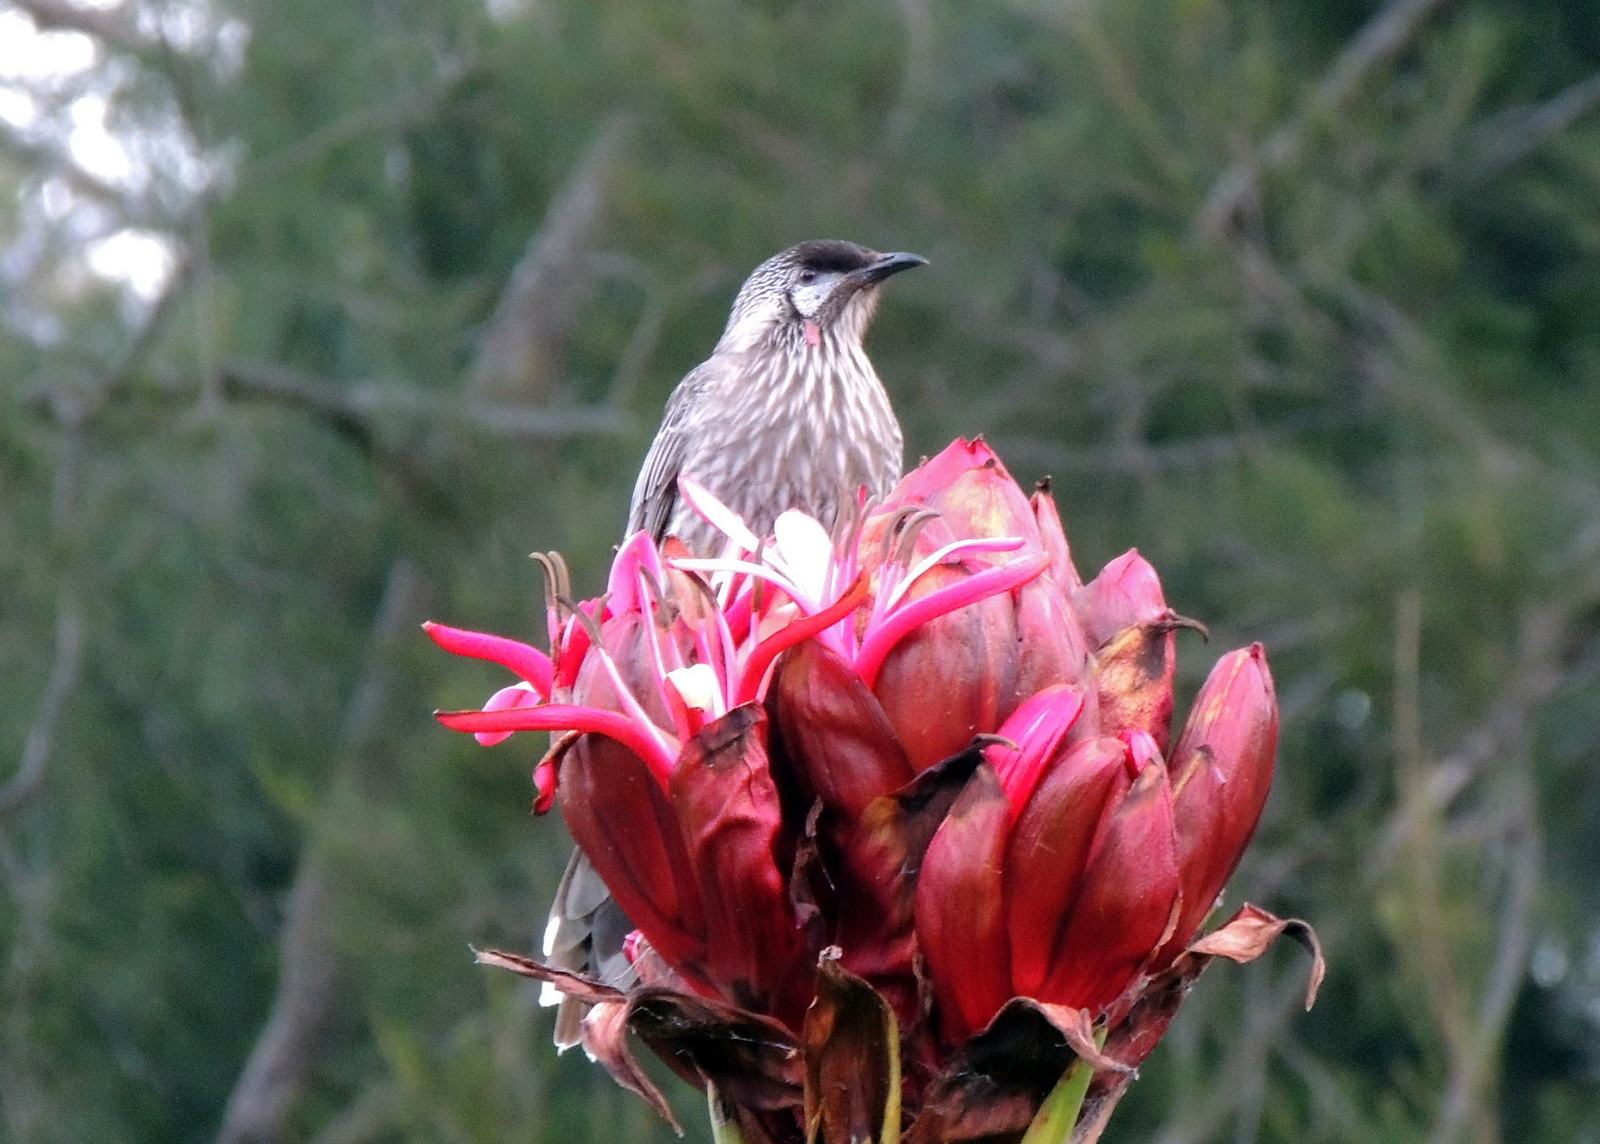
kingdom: Animalia
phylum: Chordata
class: Aves
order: Passeriformes
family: Meliphagidae
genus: Anthochaera
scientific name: Anthochaera carunculata
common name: Red wattlebird
